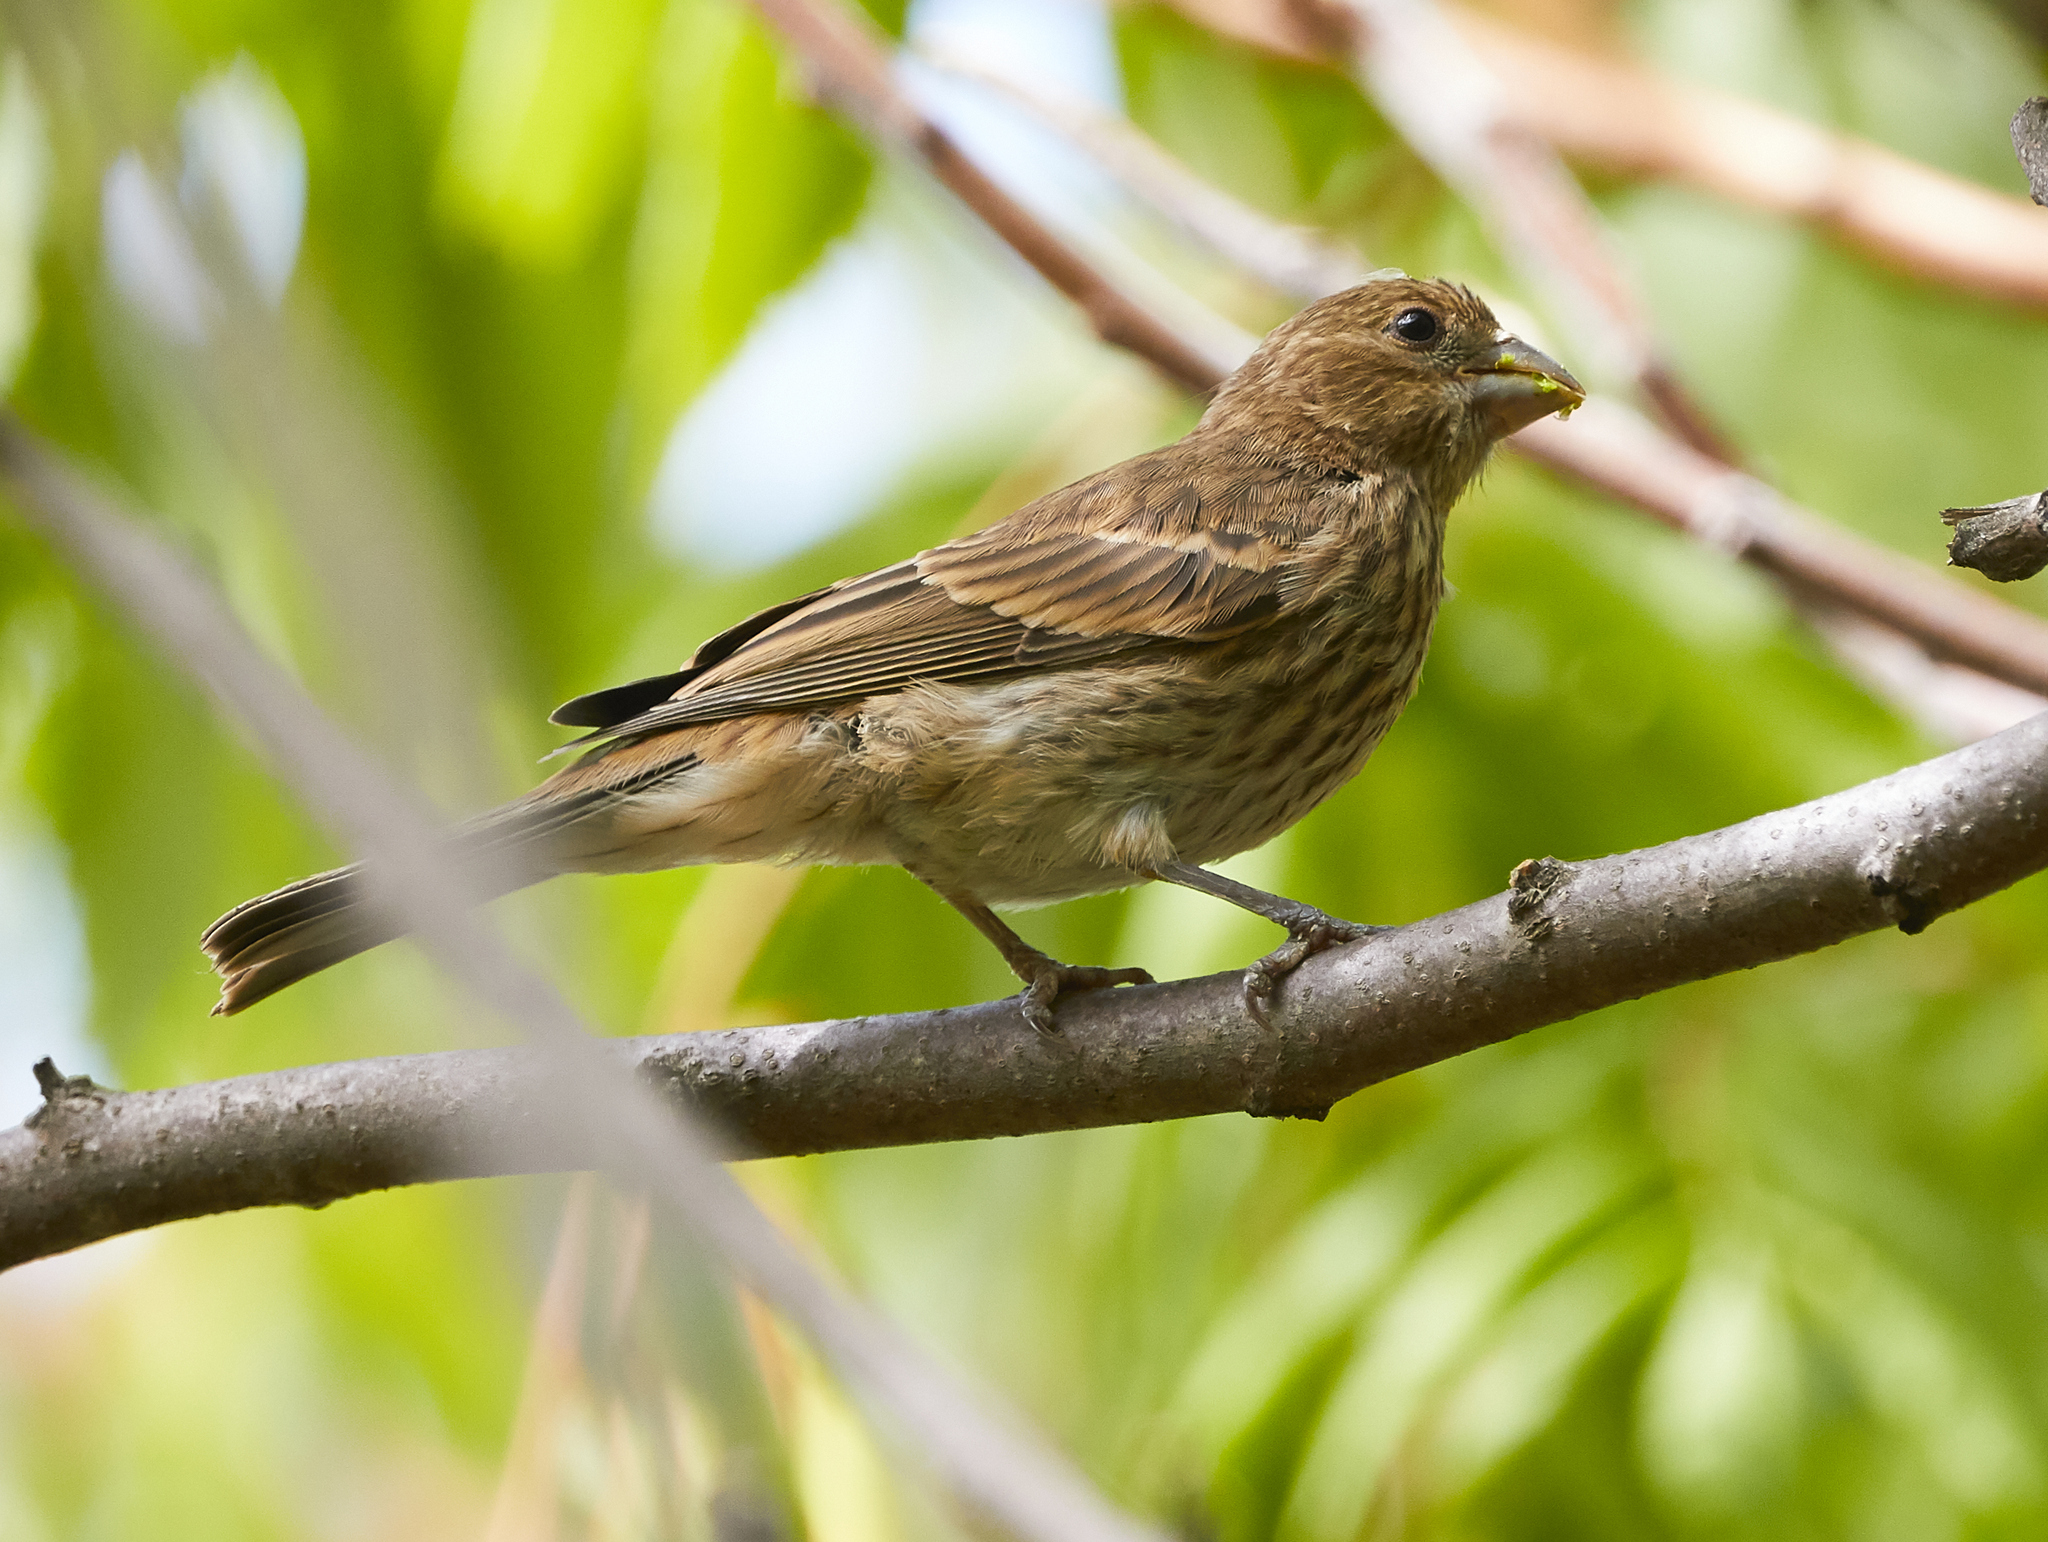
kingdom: Animalia
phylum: Chordata
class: Aves
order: Passeriformes
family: Fringillidae
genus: Haemorhous
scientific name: Haemorhous mexicanus
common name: House finch
